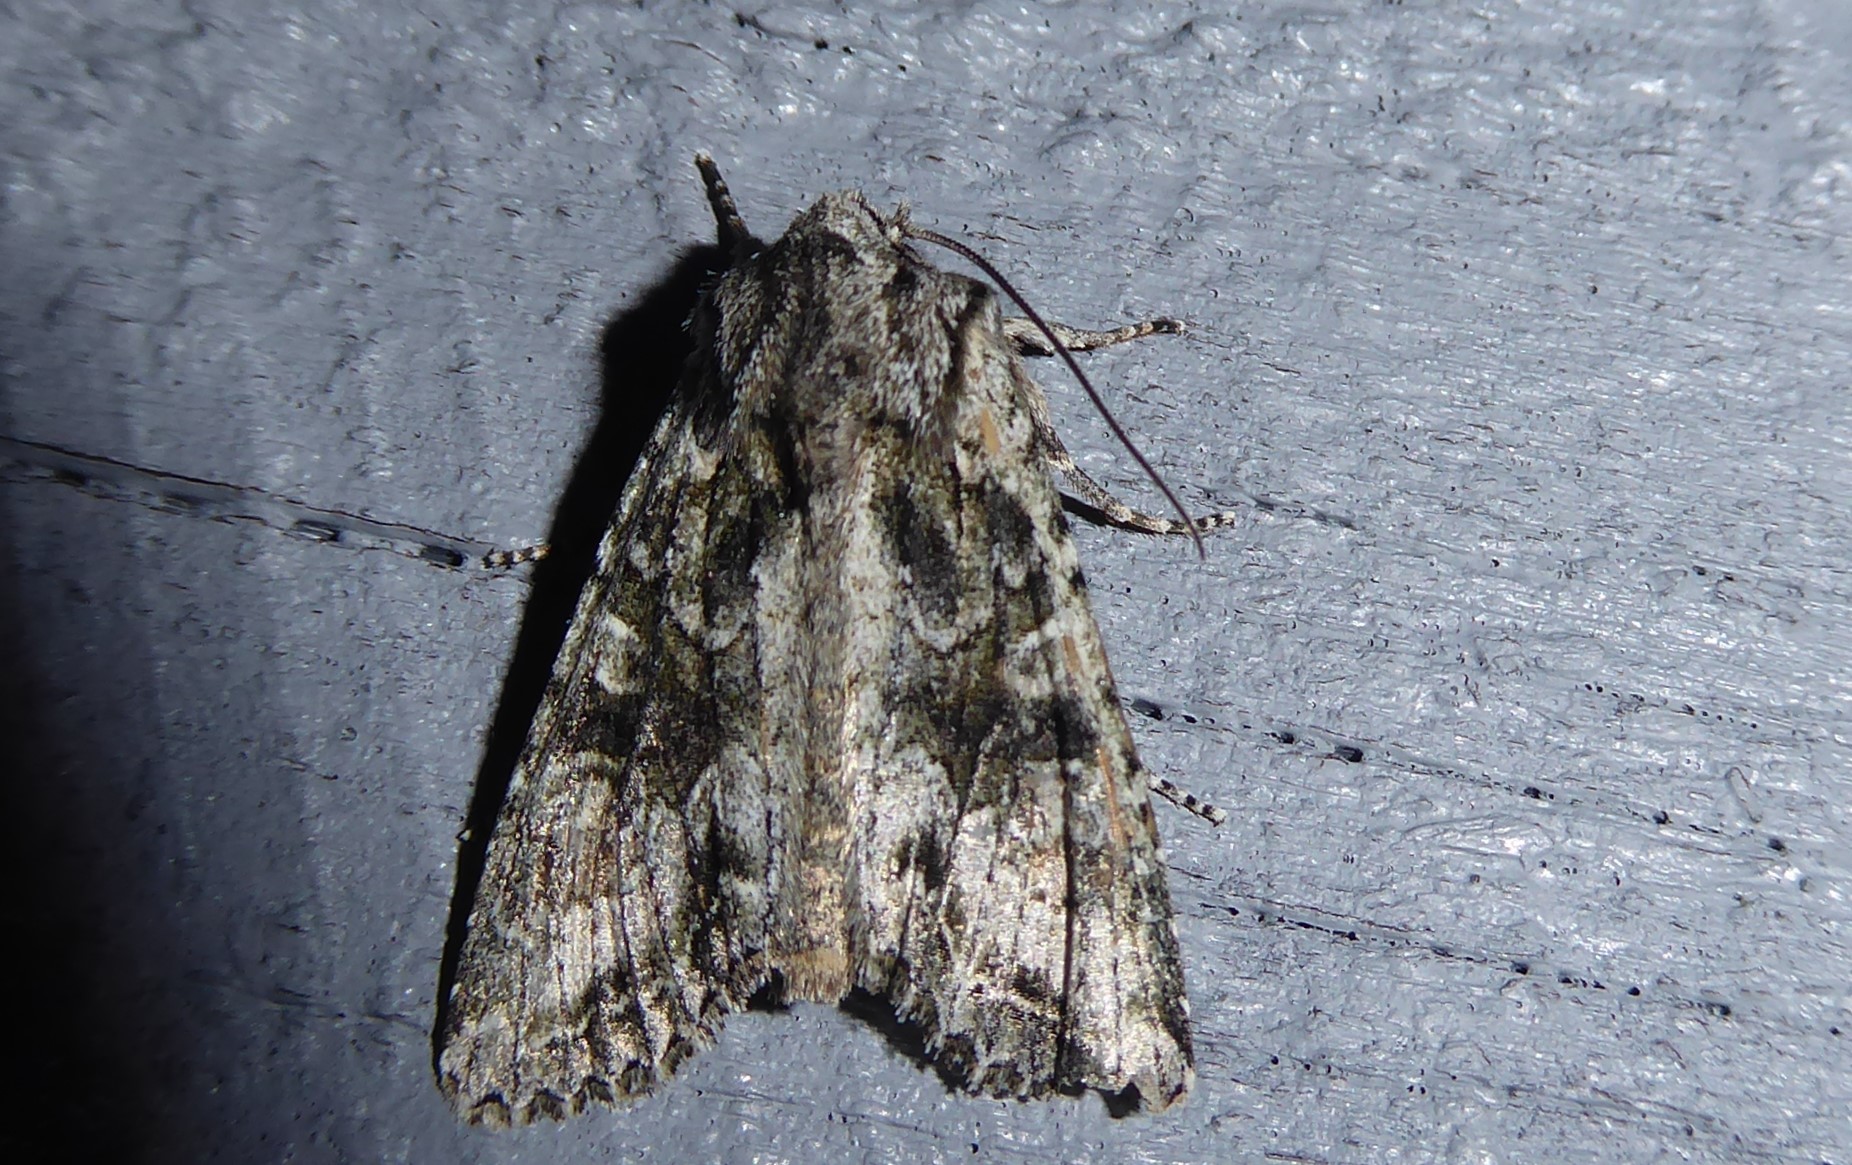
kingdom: Animalia
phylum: Arthropoda
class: Insecta
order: Lepidoptera
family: Noctuidae
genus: Ichneutica
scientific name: Ichneutica mutans
